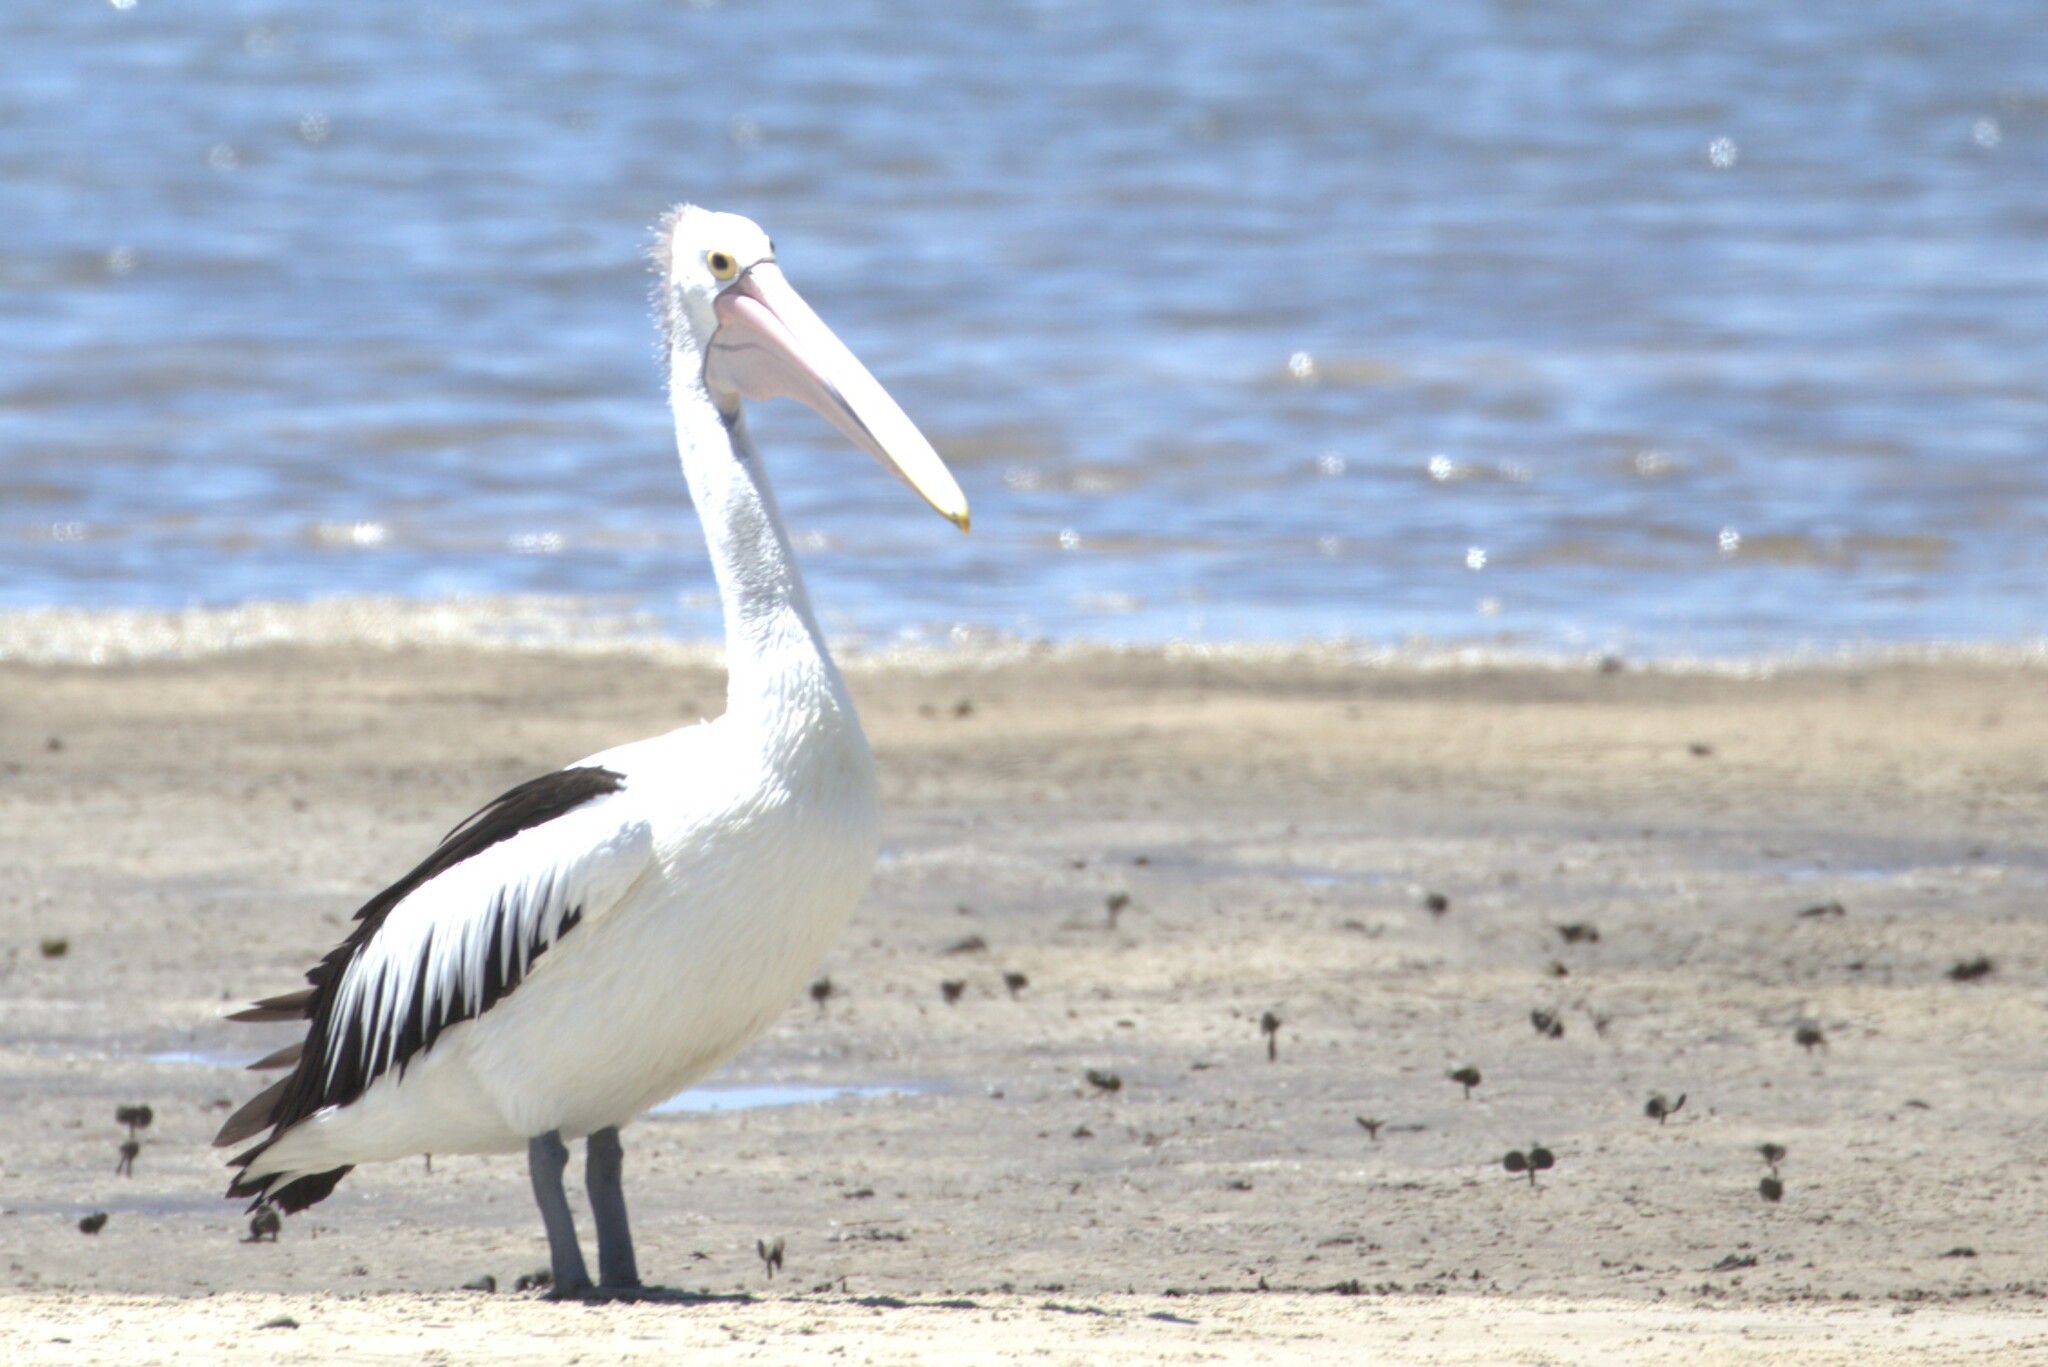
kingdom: Animalia
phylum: Chordata
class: Aves
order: Pelecaniformes
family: Pelecanidae
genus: Pelecanus
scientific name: Pelecanus conspicillatus
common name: Australian pelican
